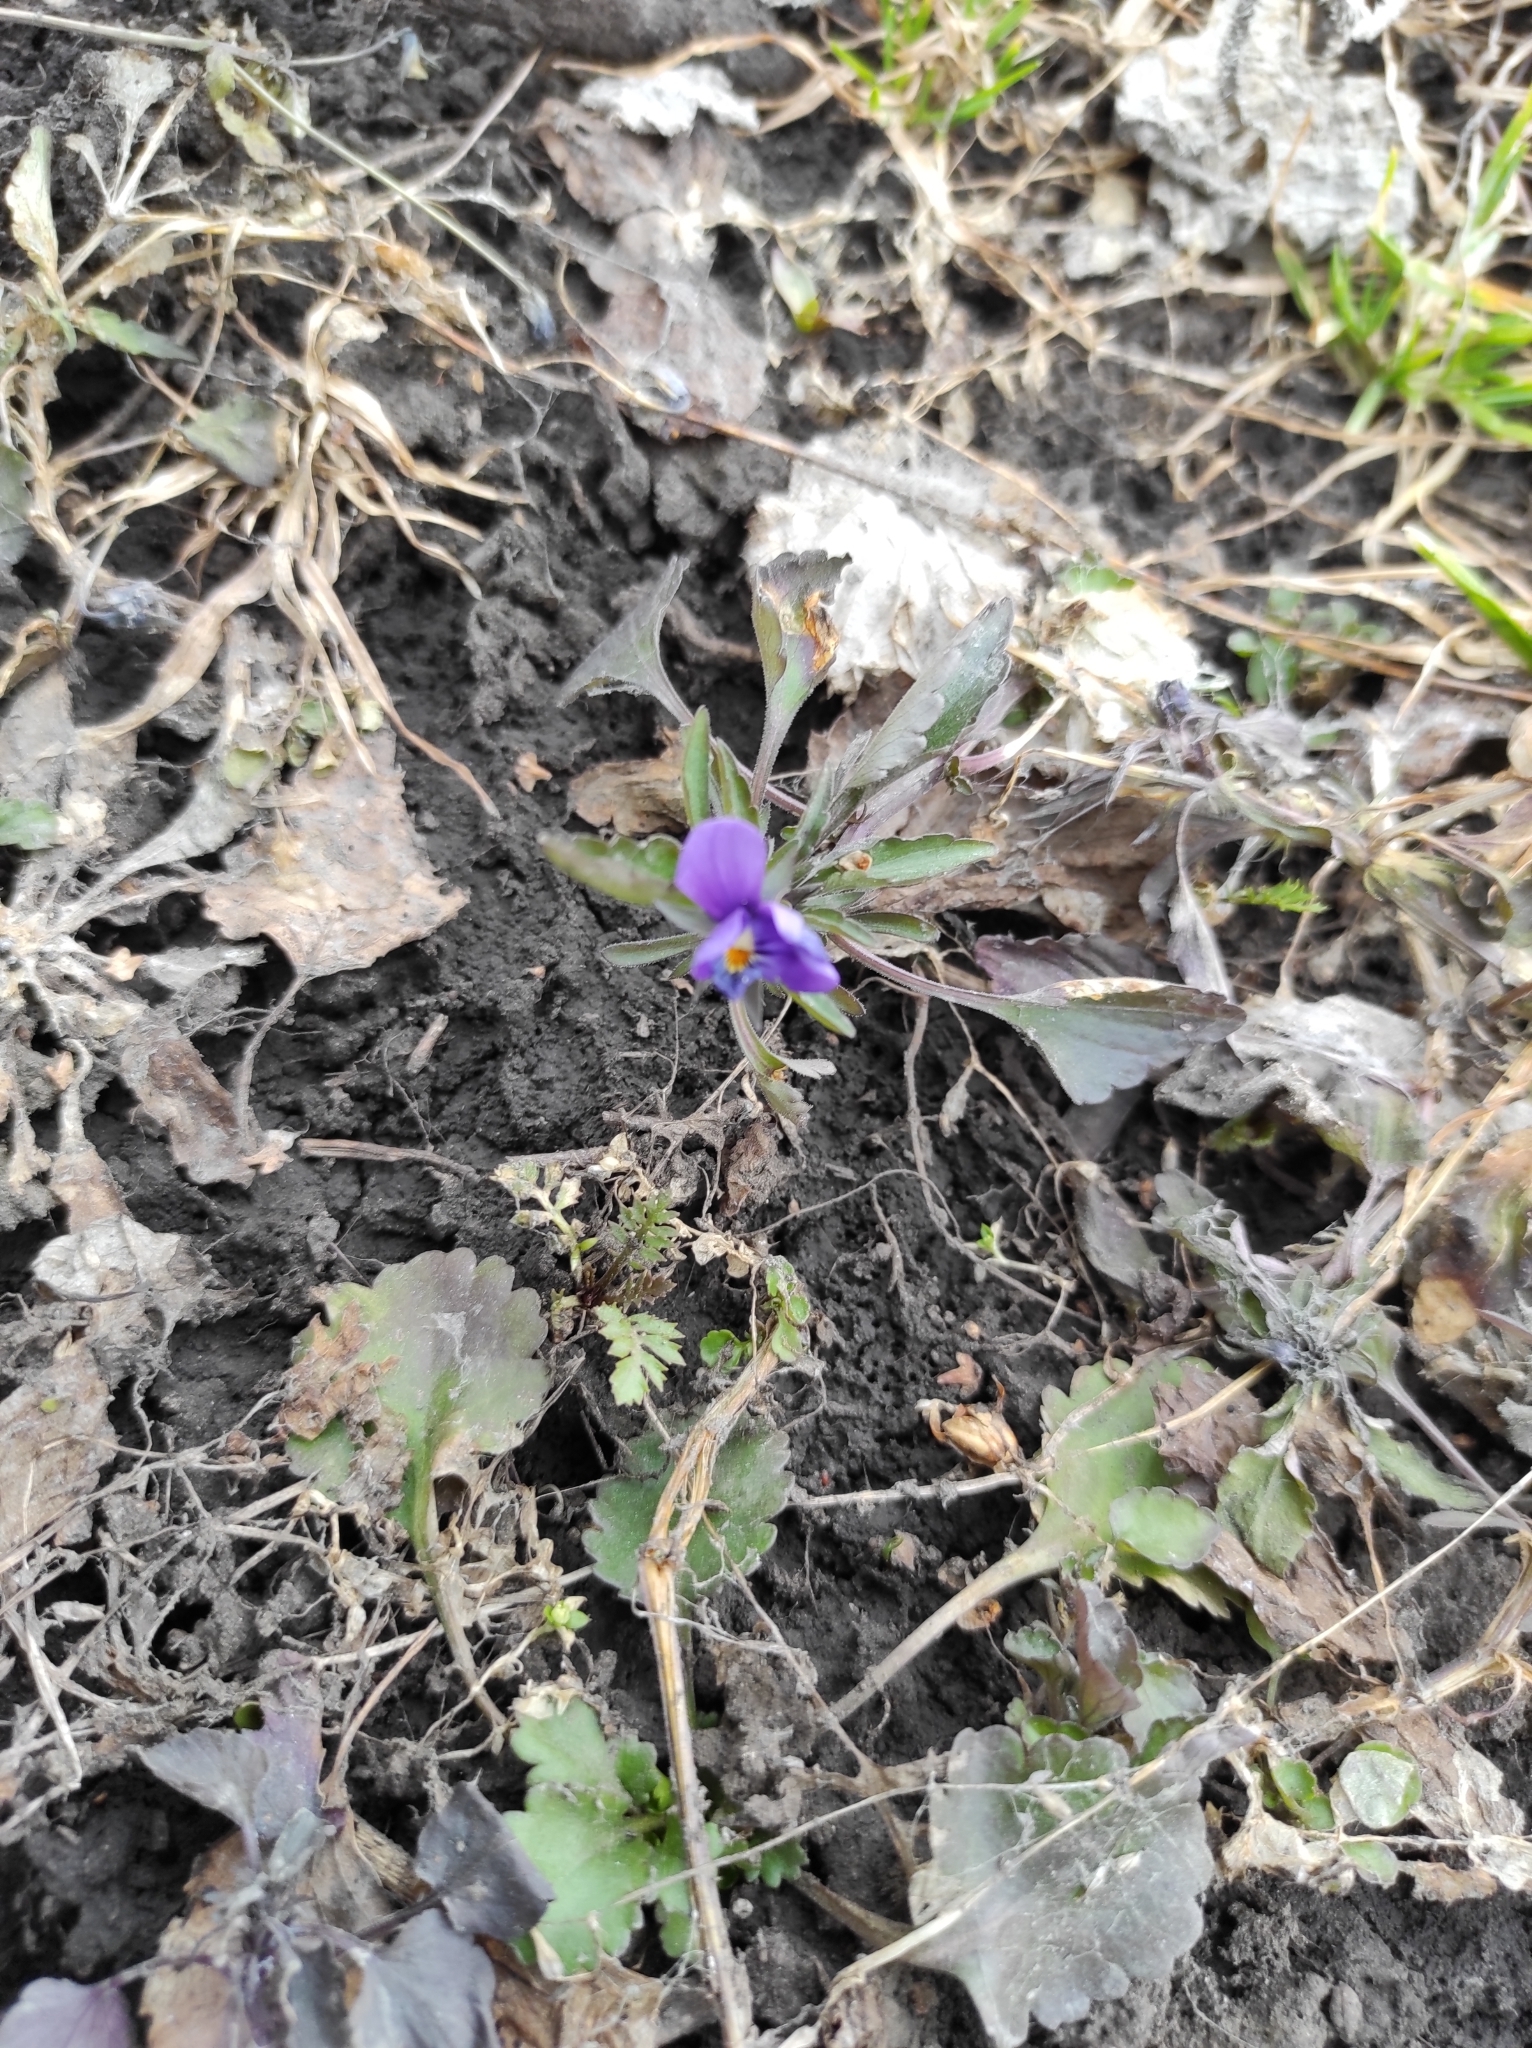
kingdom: Plantae
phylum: Tracheophyta
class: Magnoliopsida
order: Malpighiales
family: Violaceae
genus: Viola
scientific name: Viola tricolor
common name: Pansy
